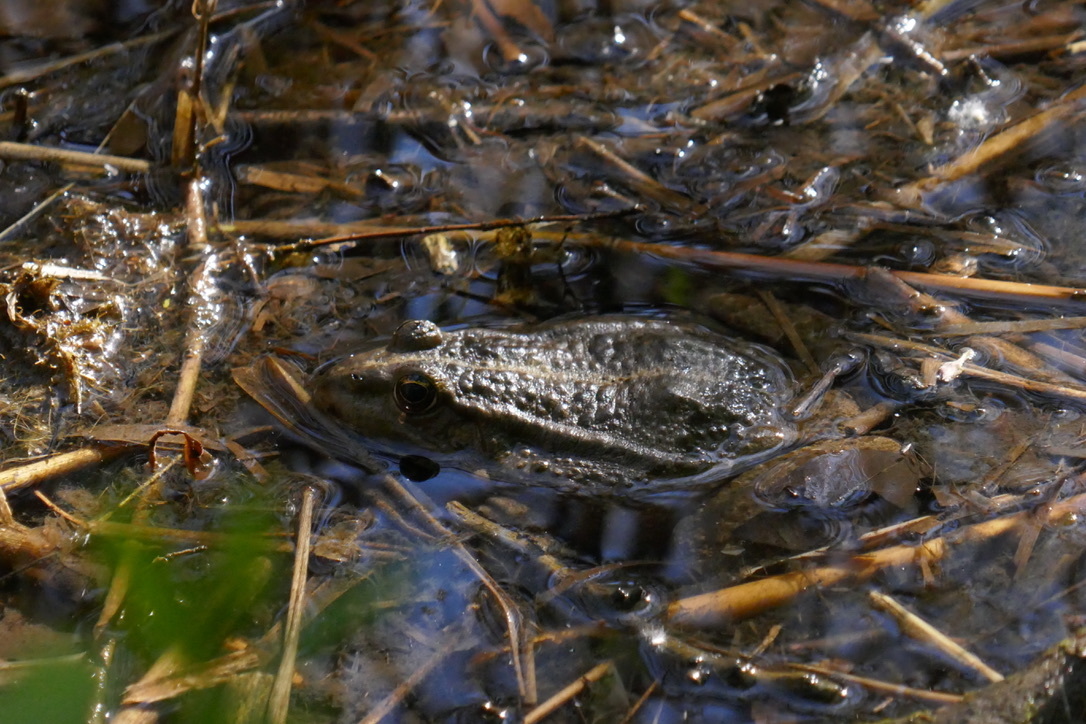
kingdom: Animalia
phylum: Chordata
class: Amphibia
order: Anura
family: Ranidae
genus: Pelophylax
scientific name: Pelophylax
